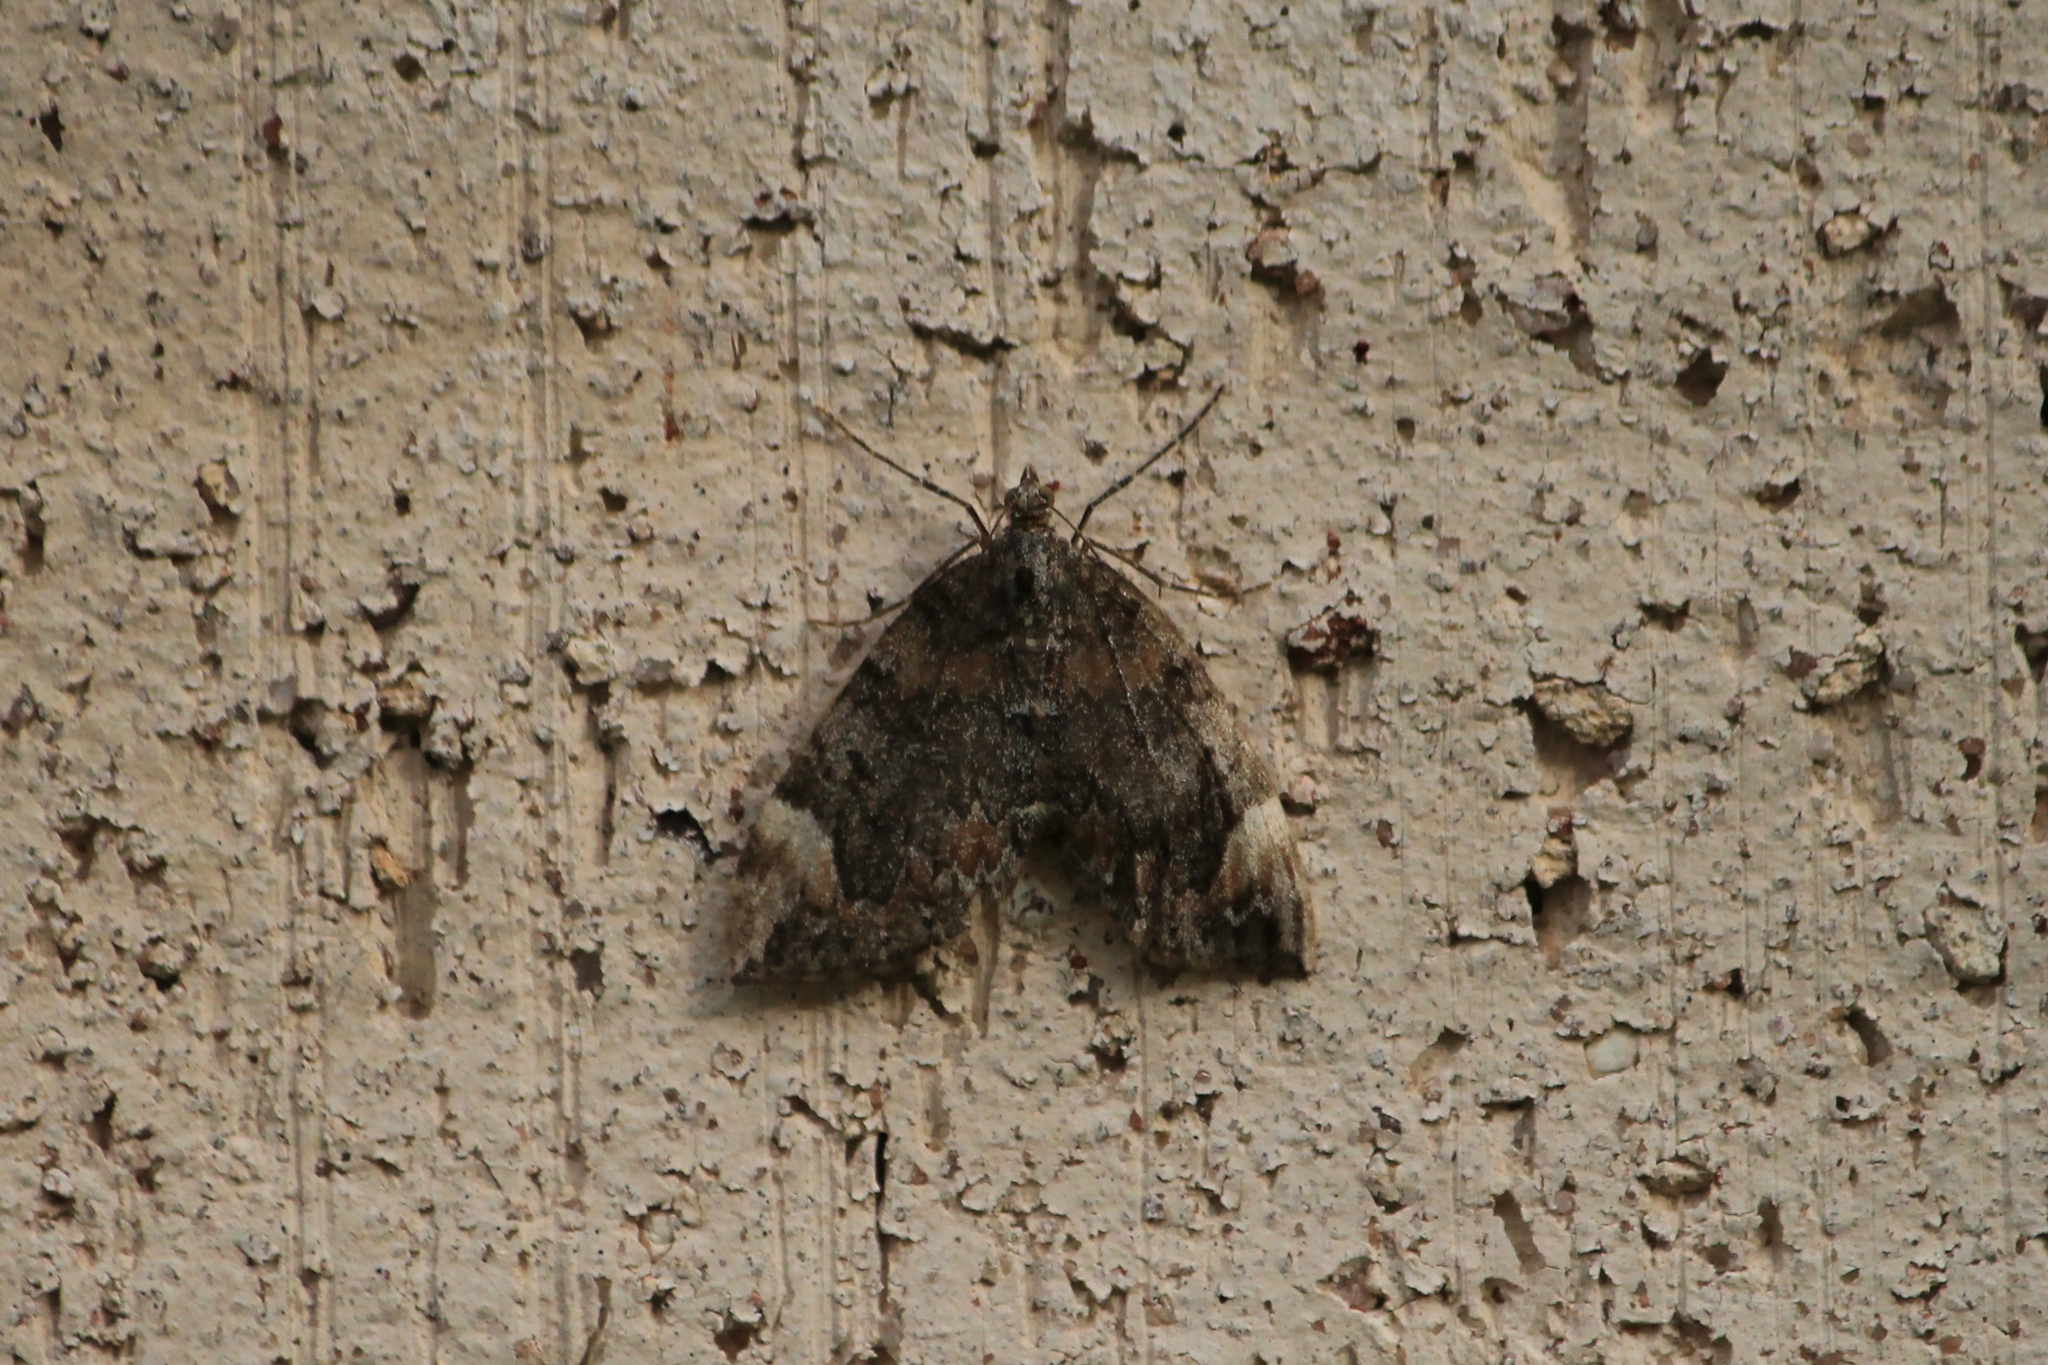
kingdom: Animalia
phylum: Arthropoda
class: Insecta
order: Lepidoptera
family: Geometridae
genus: Dysstroma
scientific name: Dysstroma citrata
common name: Dark marbled carpet
